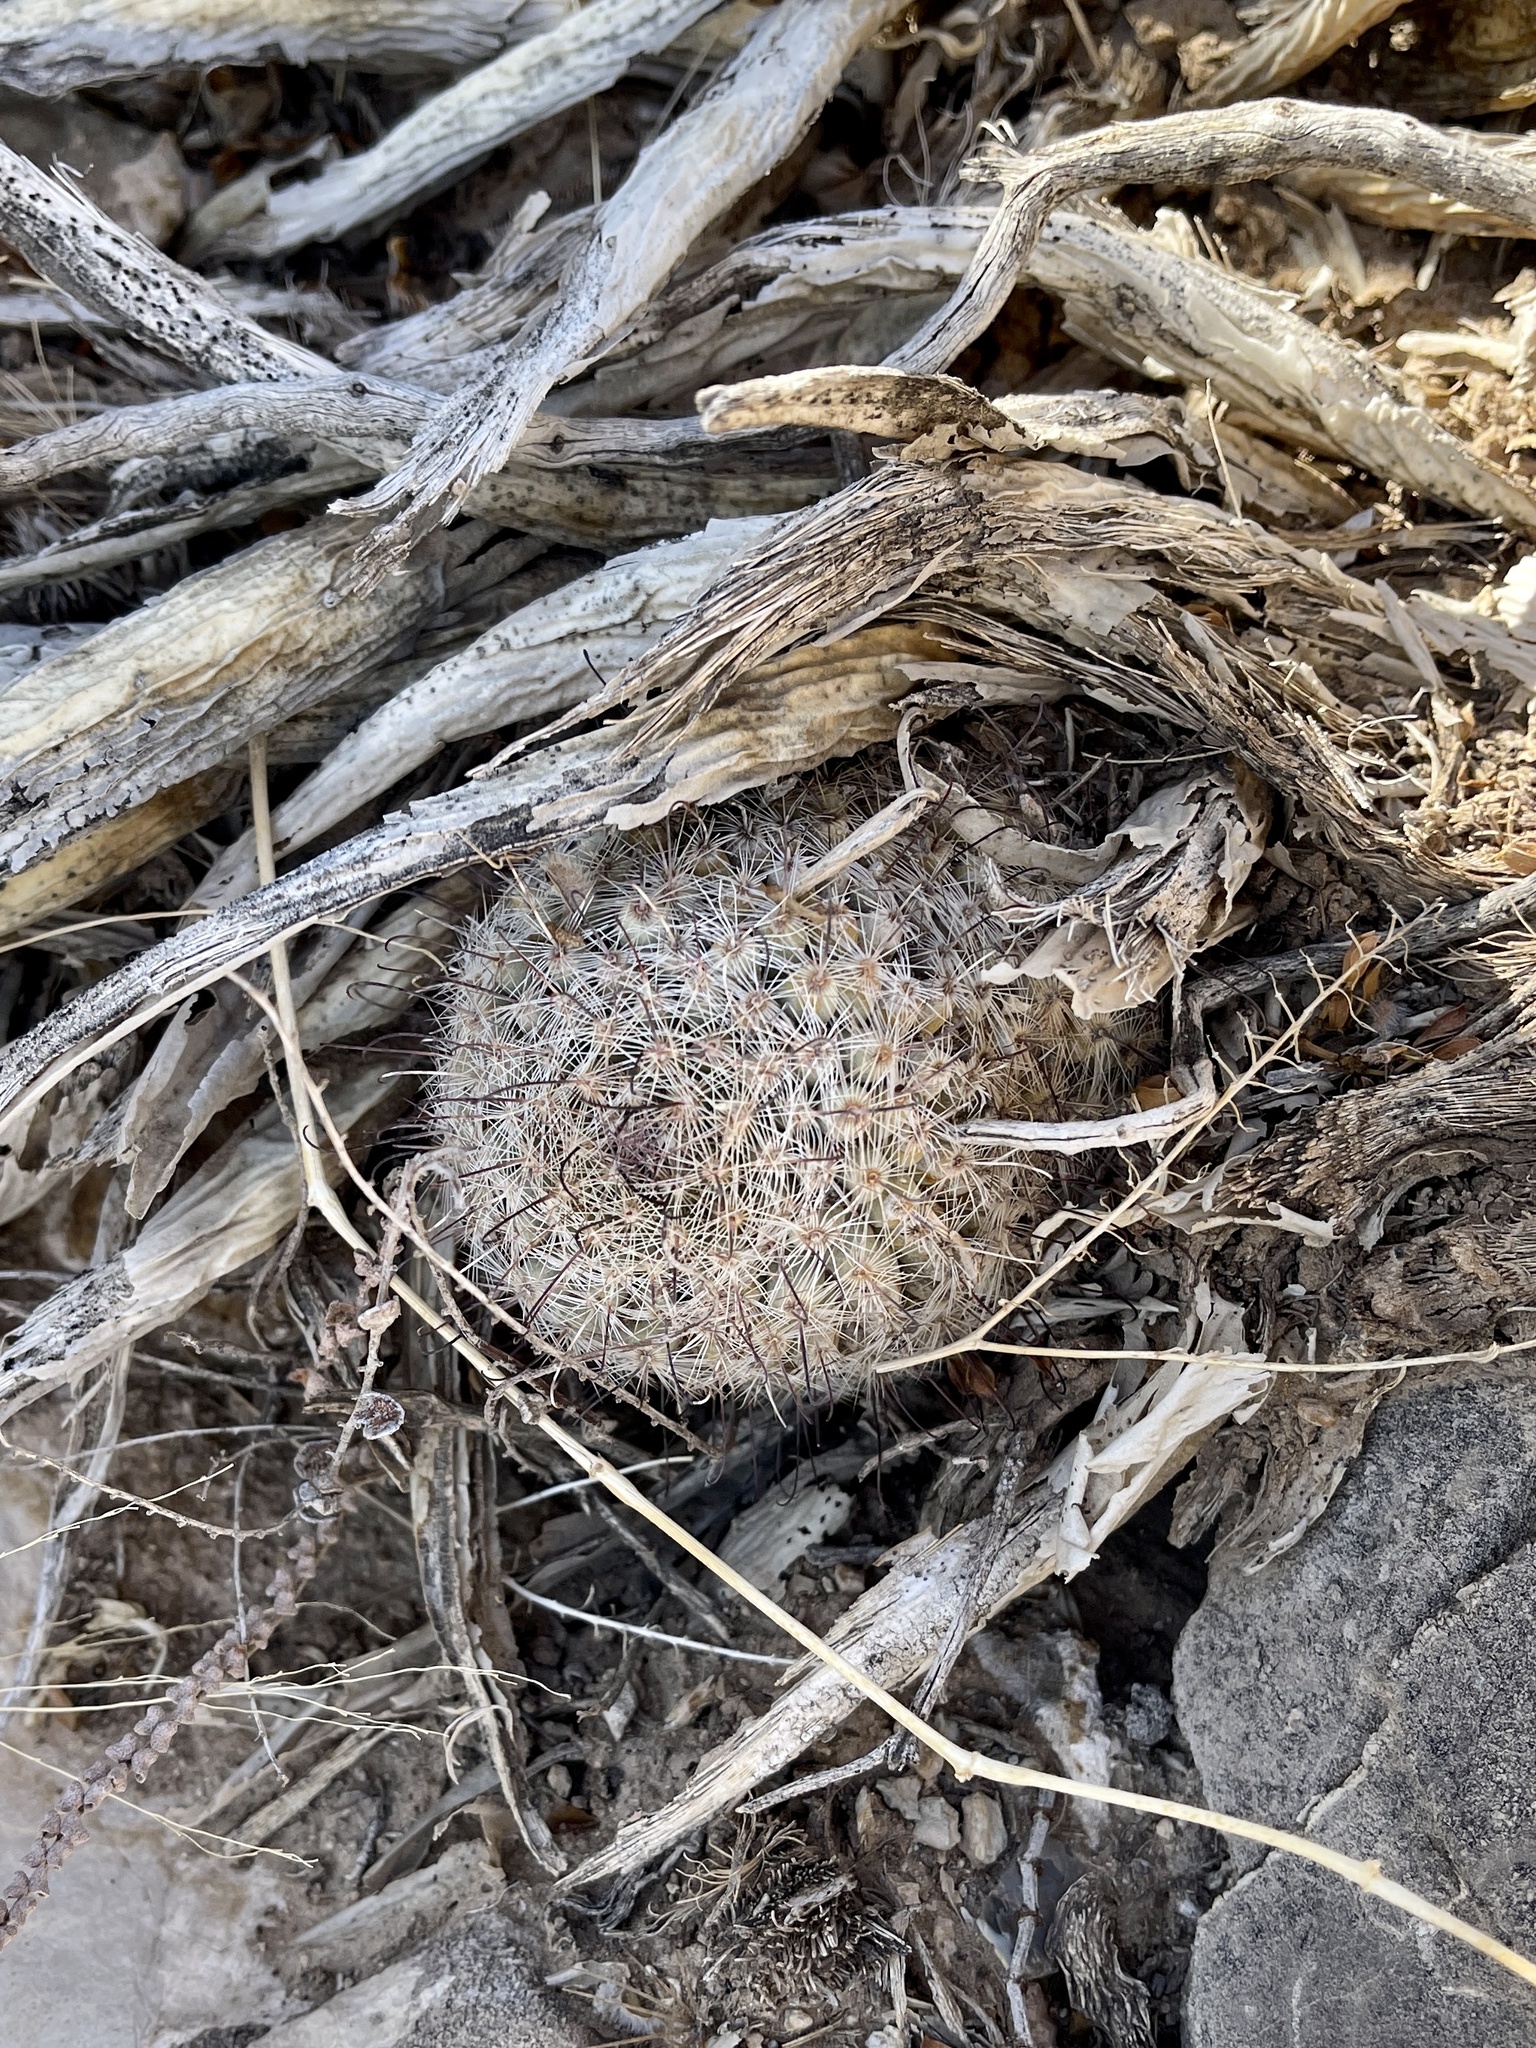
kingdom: Plantae
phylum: Tracheophyta
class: Magnoliopsida
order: Caryophyllales
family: Cactaceae
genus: Cochemiea
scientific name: Cochemiea grahamii
